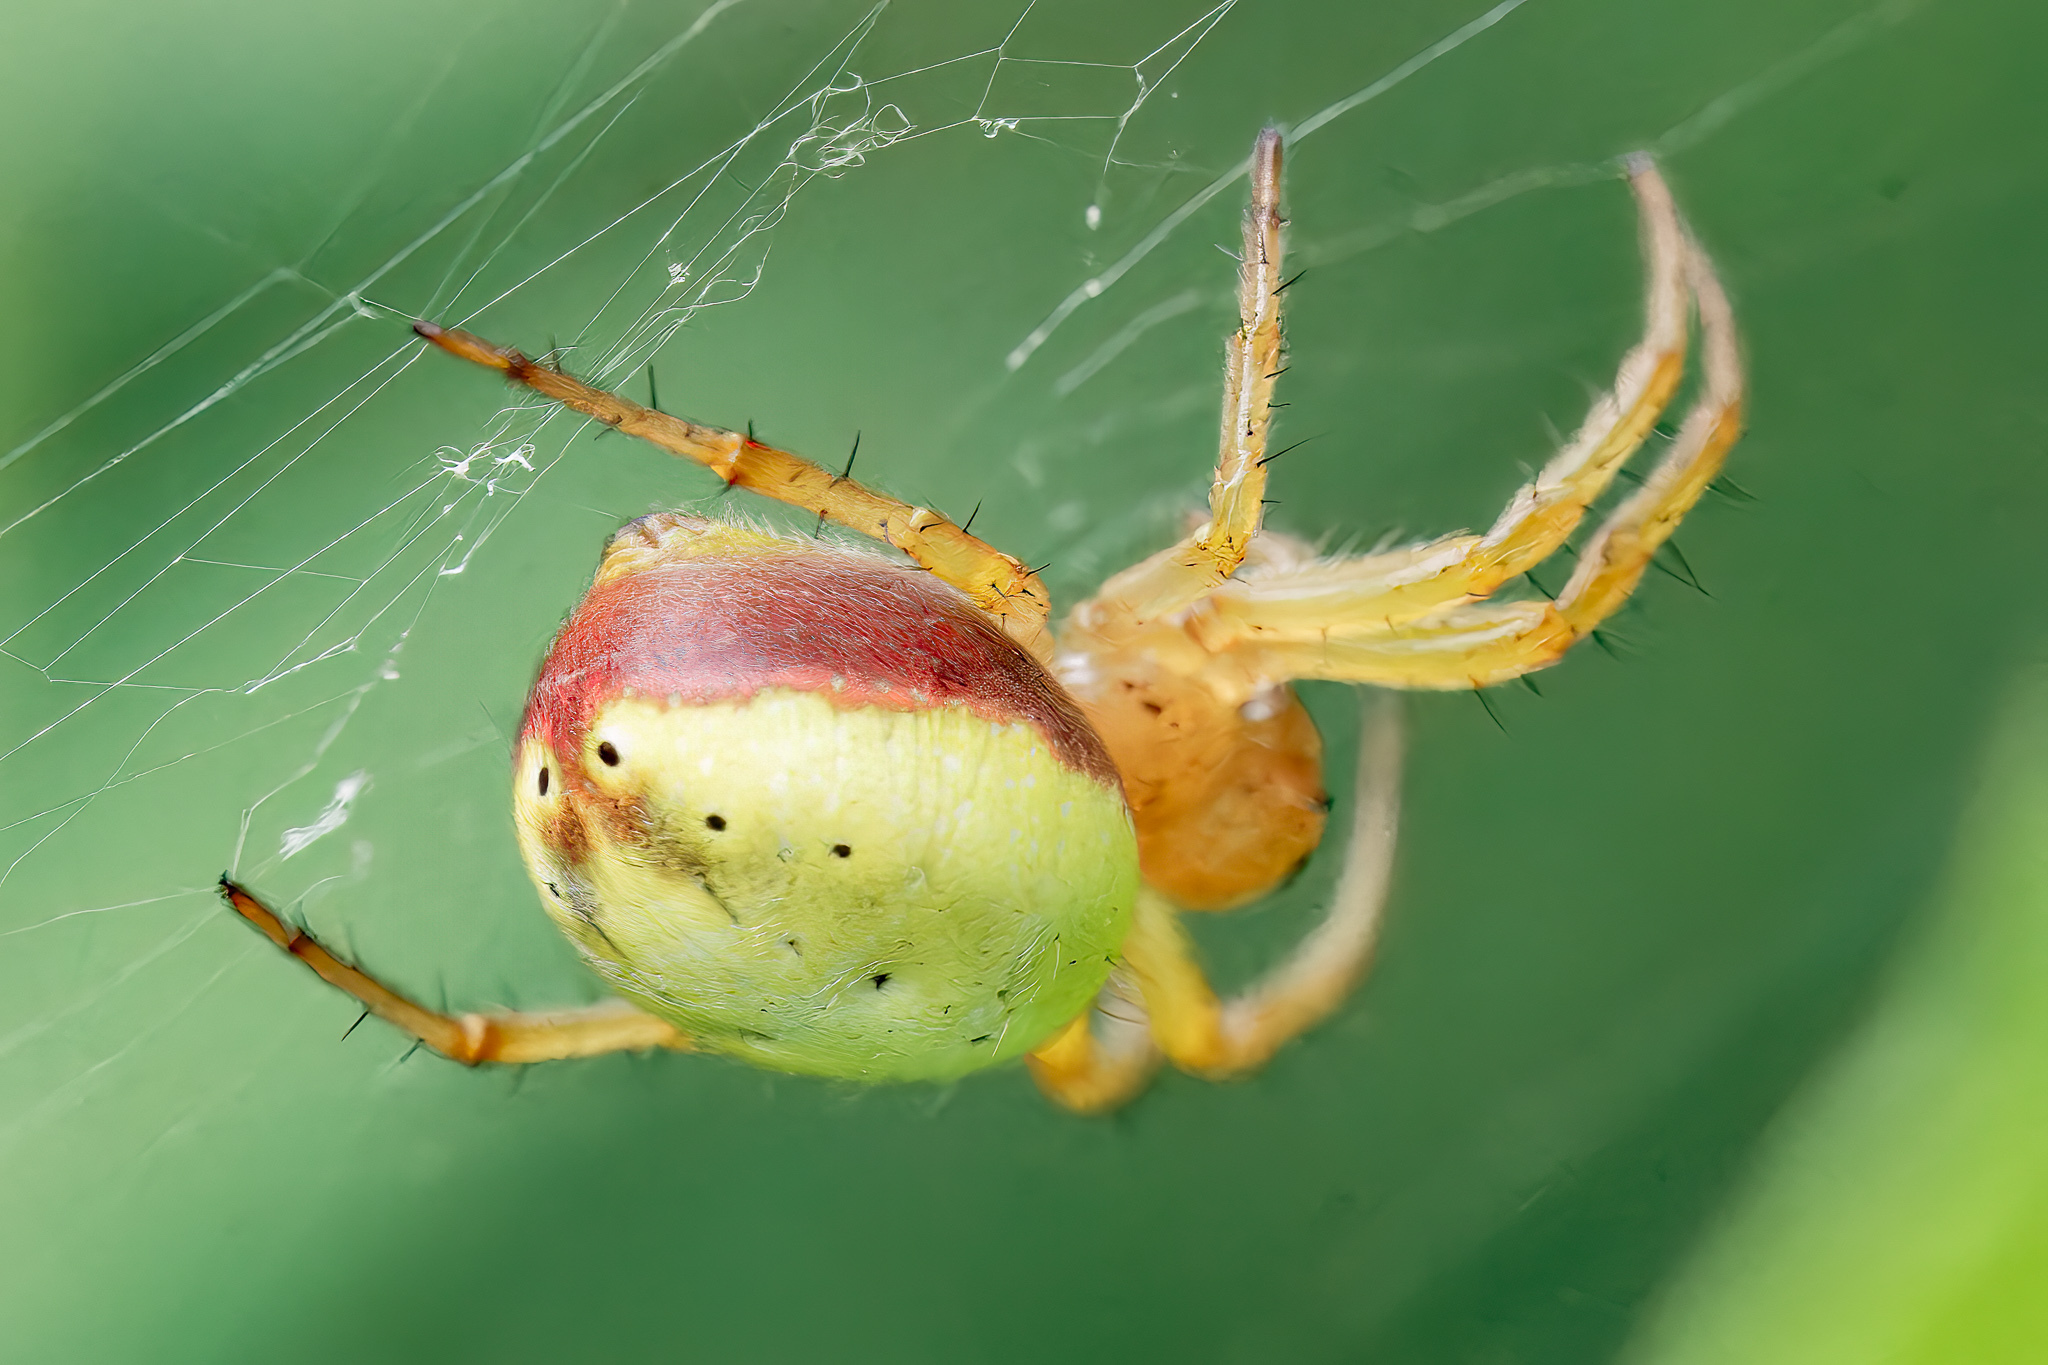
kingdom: Animalia
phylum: Arthropoda
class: Arachnida
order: Araneae
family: Araneidae
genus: Araniella
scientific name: Araniella displicata
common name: Sixspotted orb weaver
